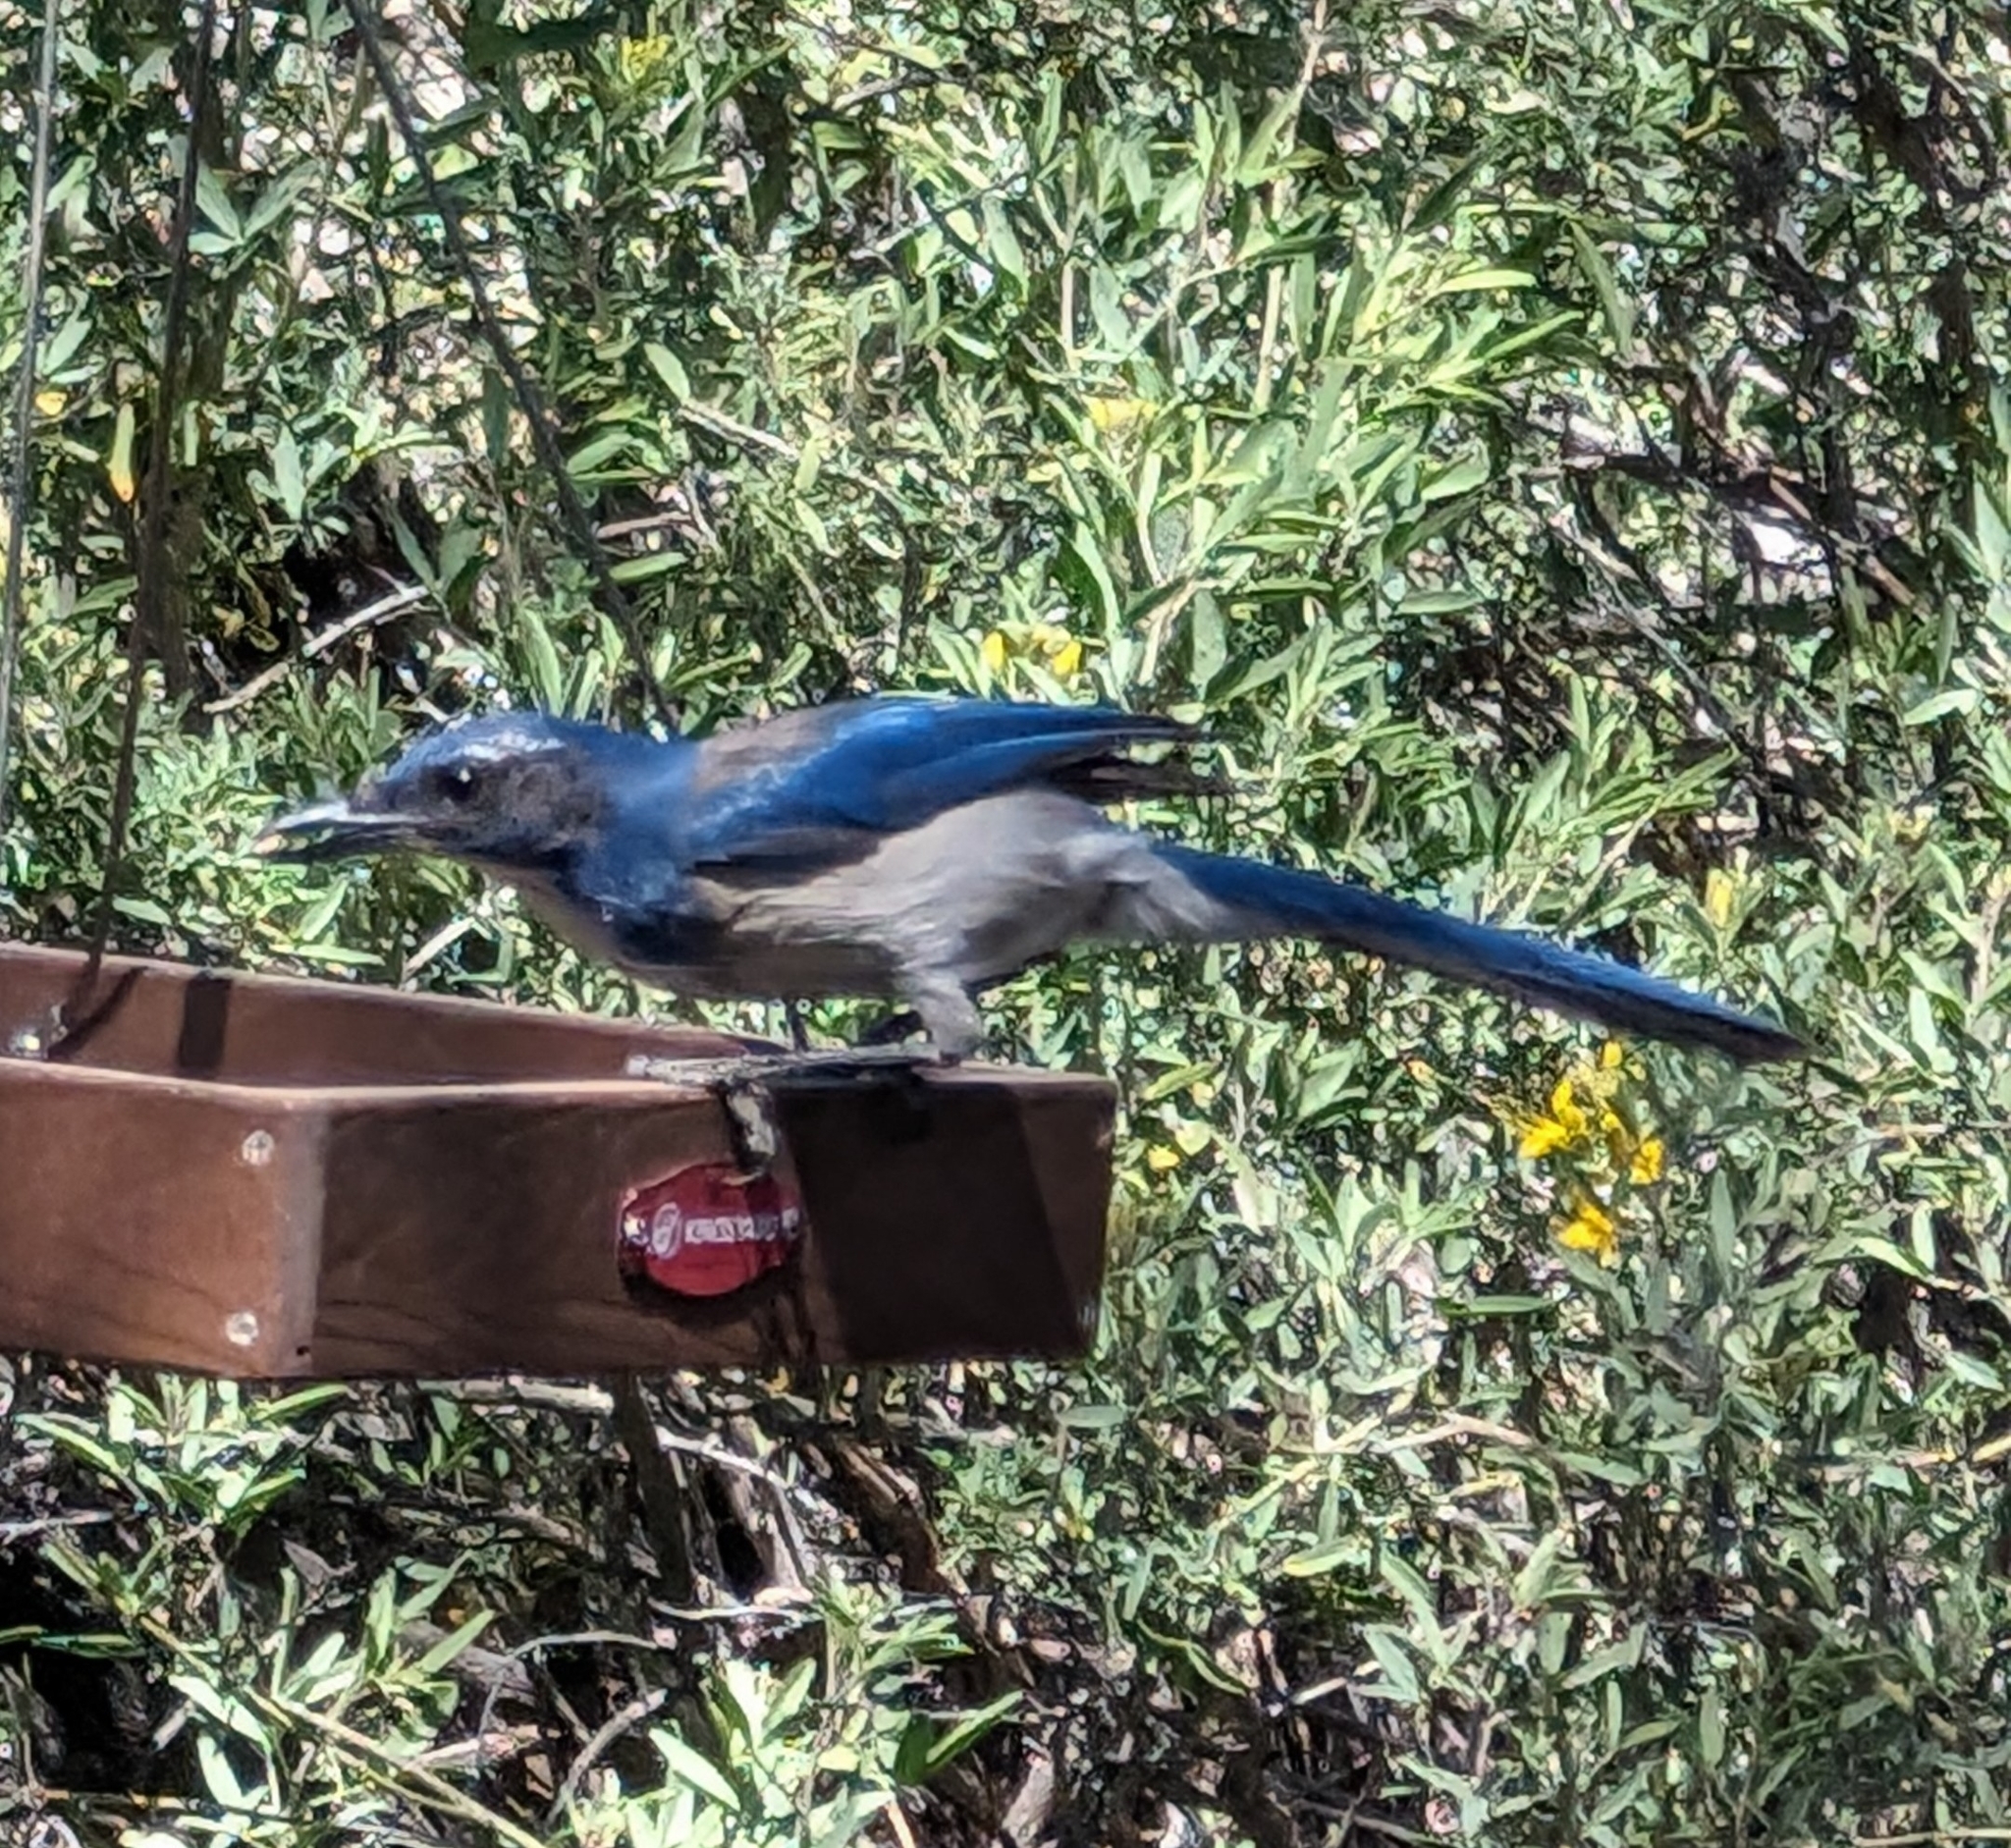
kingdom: Animalia
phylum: Chordata
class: Aves
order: Passeriformes
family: Corvidae
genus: Aphelocoma
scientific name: Aphelocoma californica
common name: California scrub-jay
